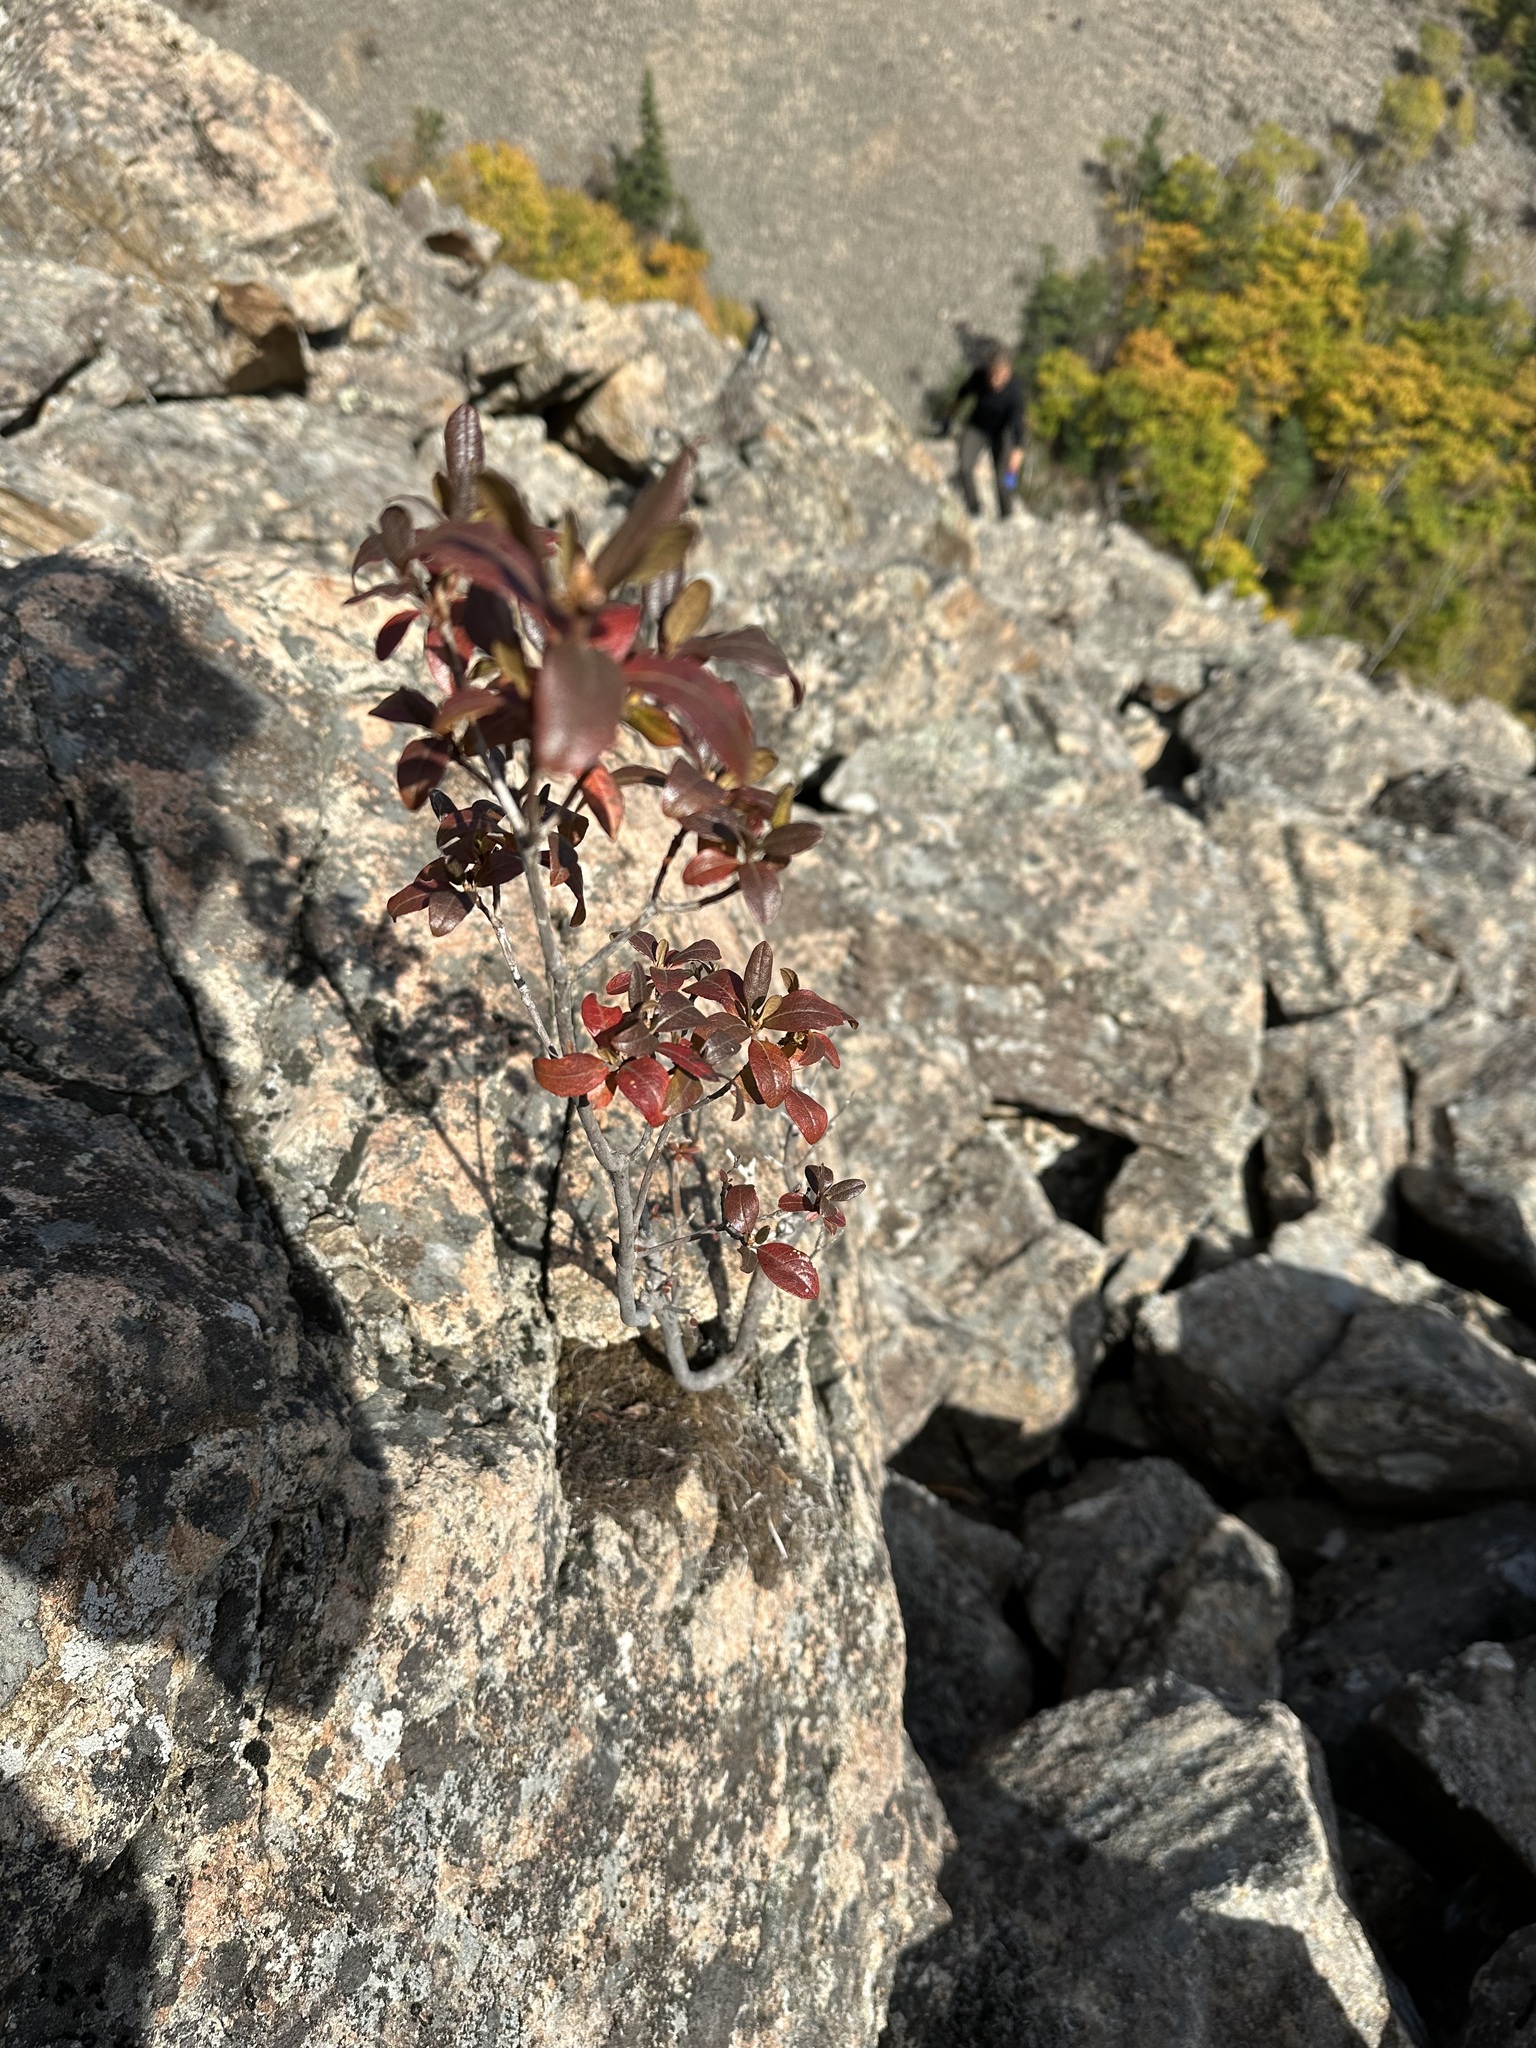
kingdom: Plantae
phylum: Tracheophyta
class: Magnoliopsida
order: Ericales
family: Ericaceae
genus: Rhododendron
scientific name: Rhododendron mucronulatum
